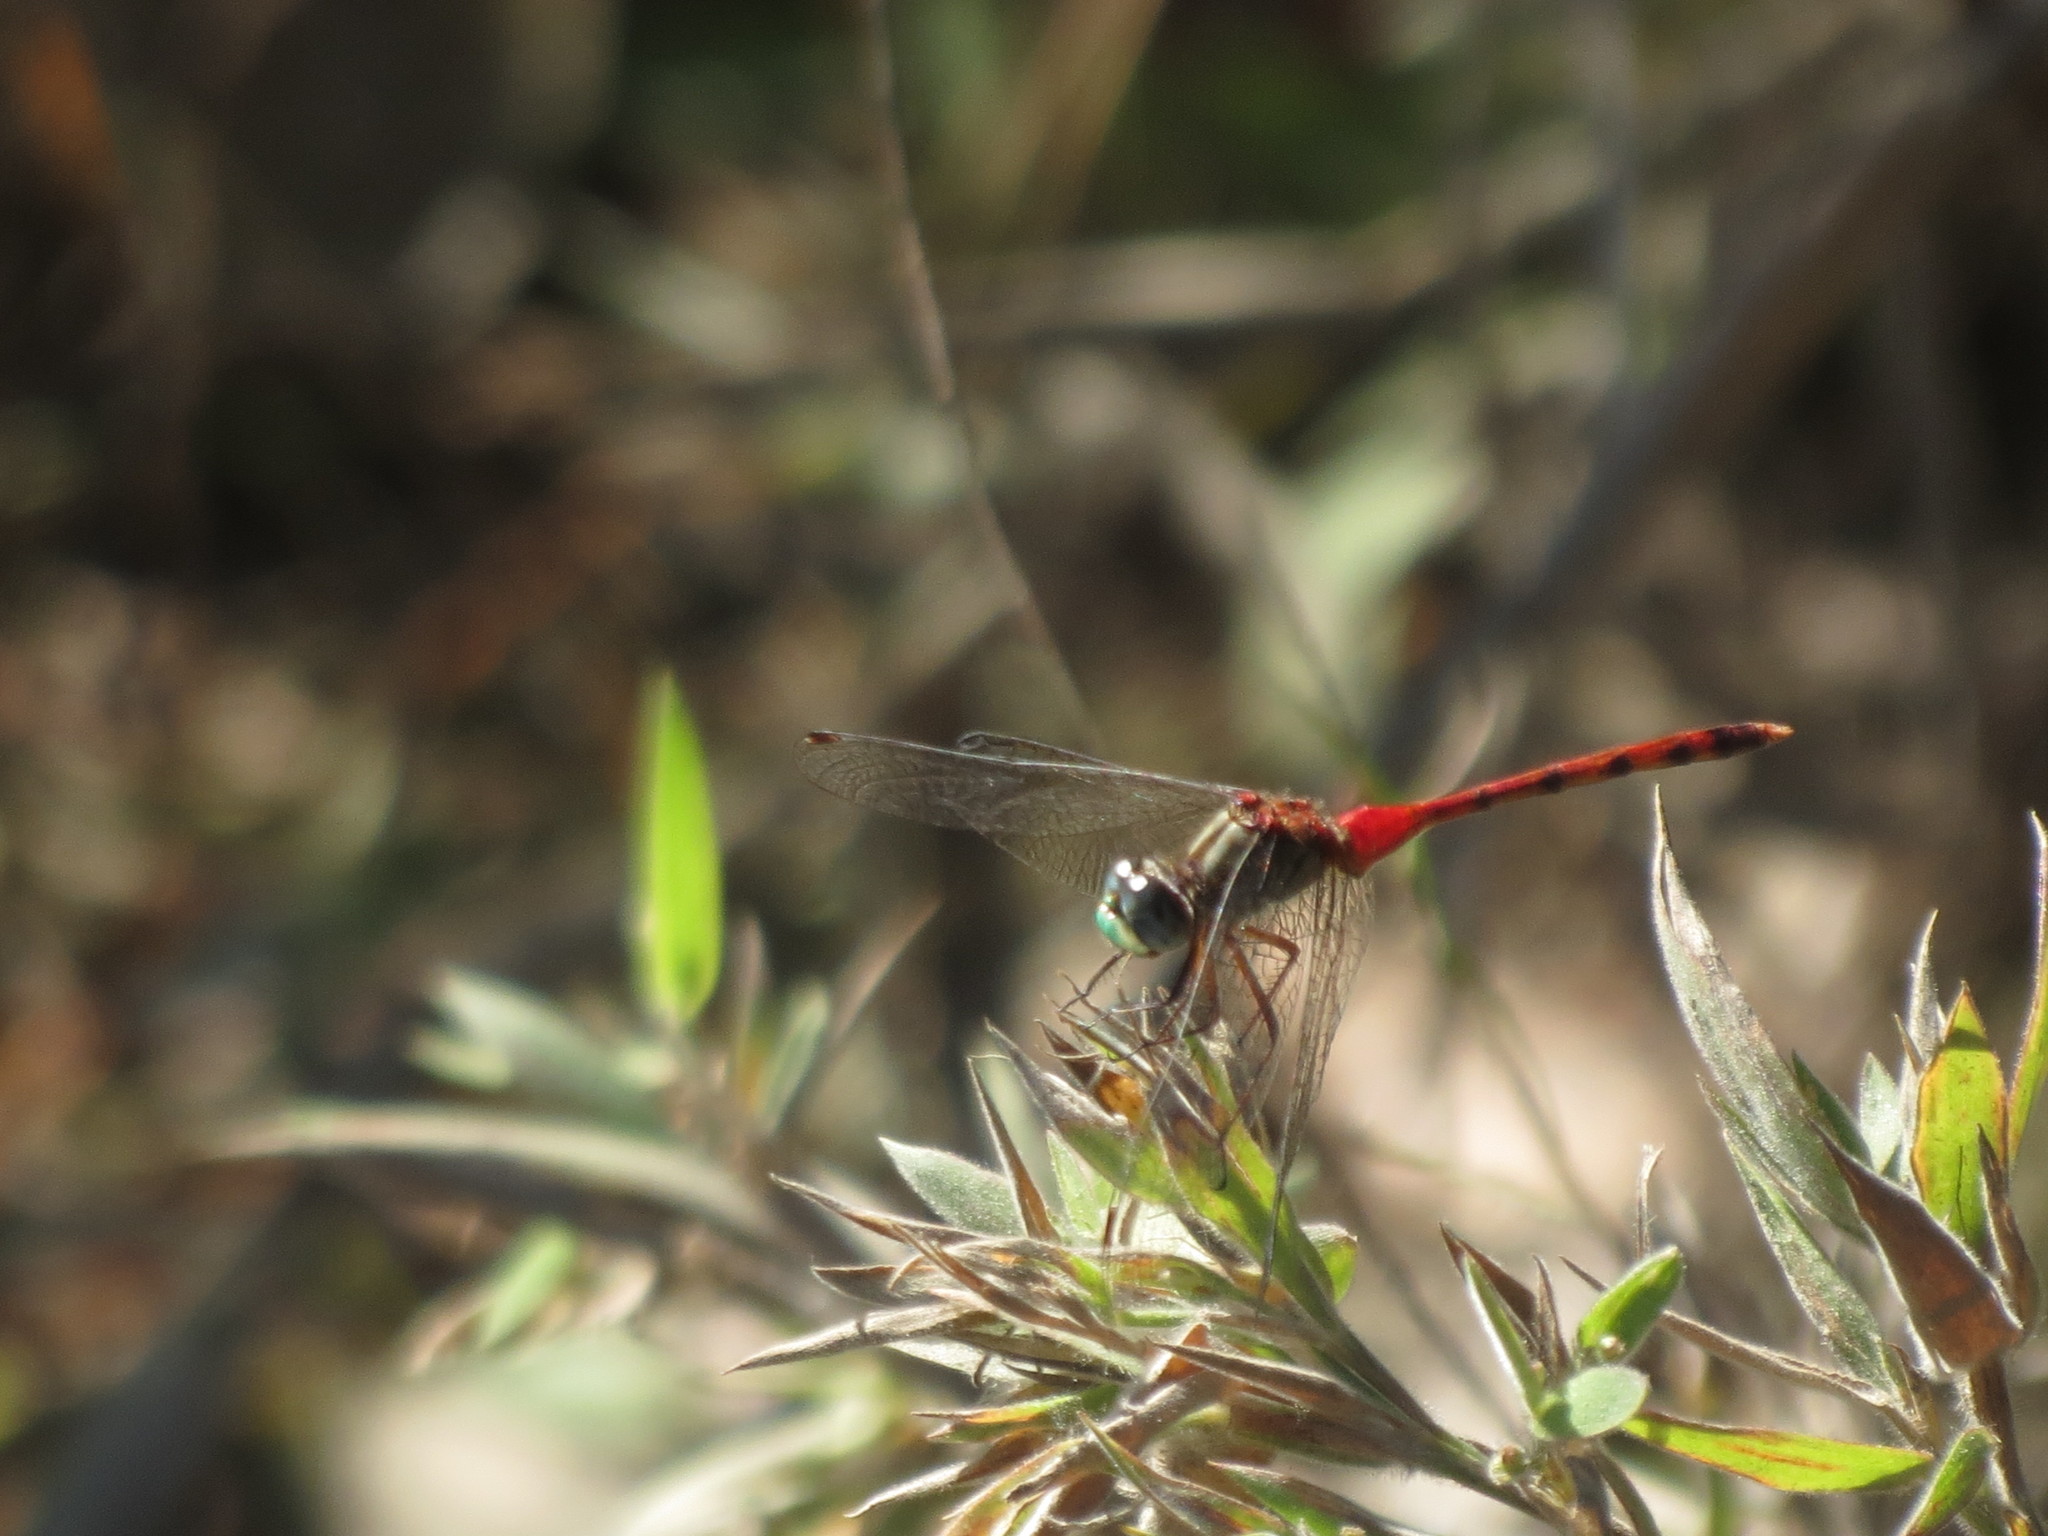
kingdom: Animalia
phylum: Arthropoda
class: Insecta
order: Odonata
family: Libellulidae
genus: Sympetrum
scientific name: Sympetrum ambiguum
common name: Blue-faced meadowhawk
